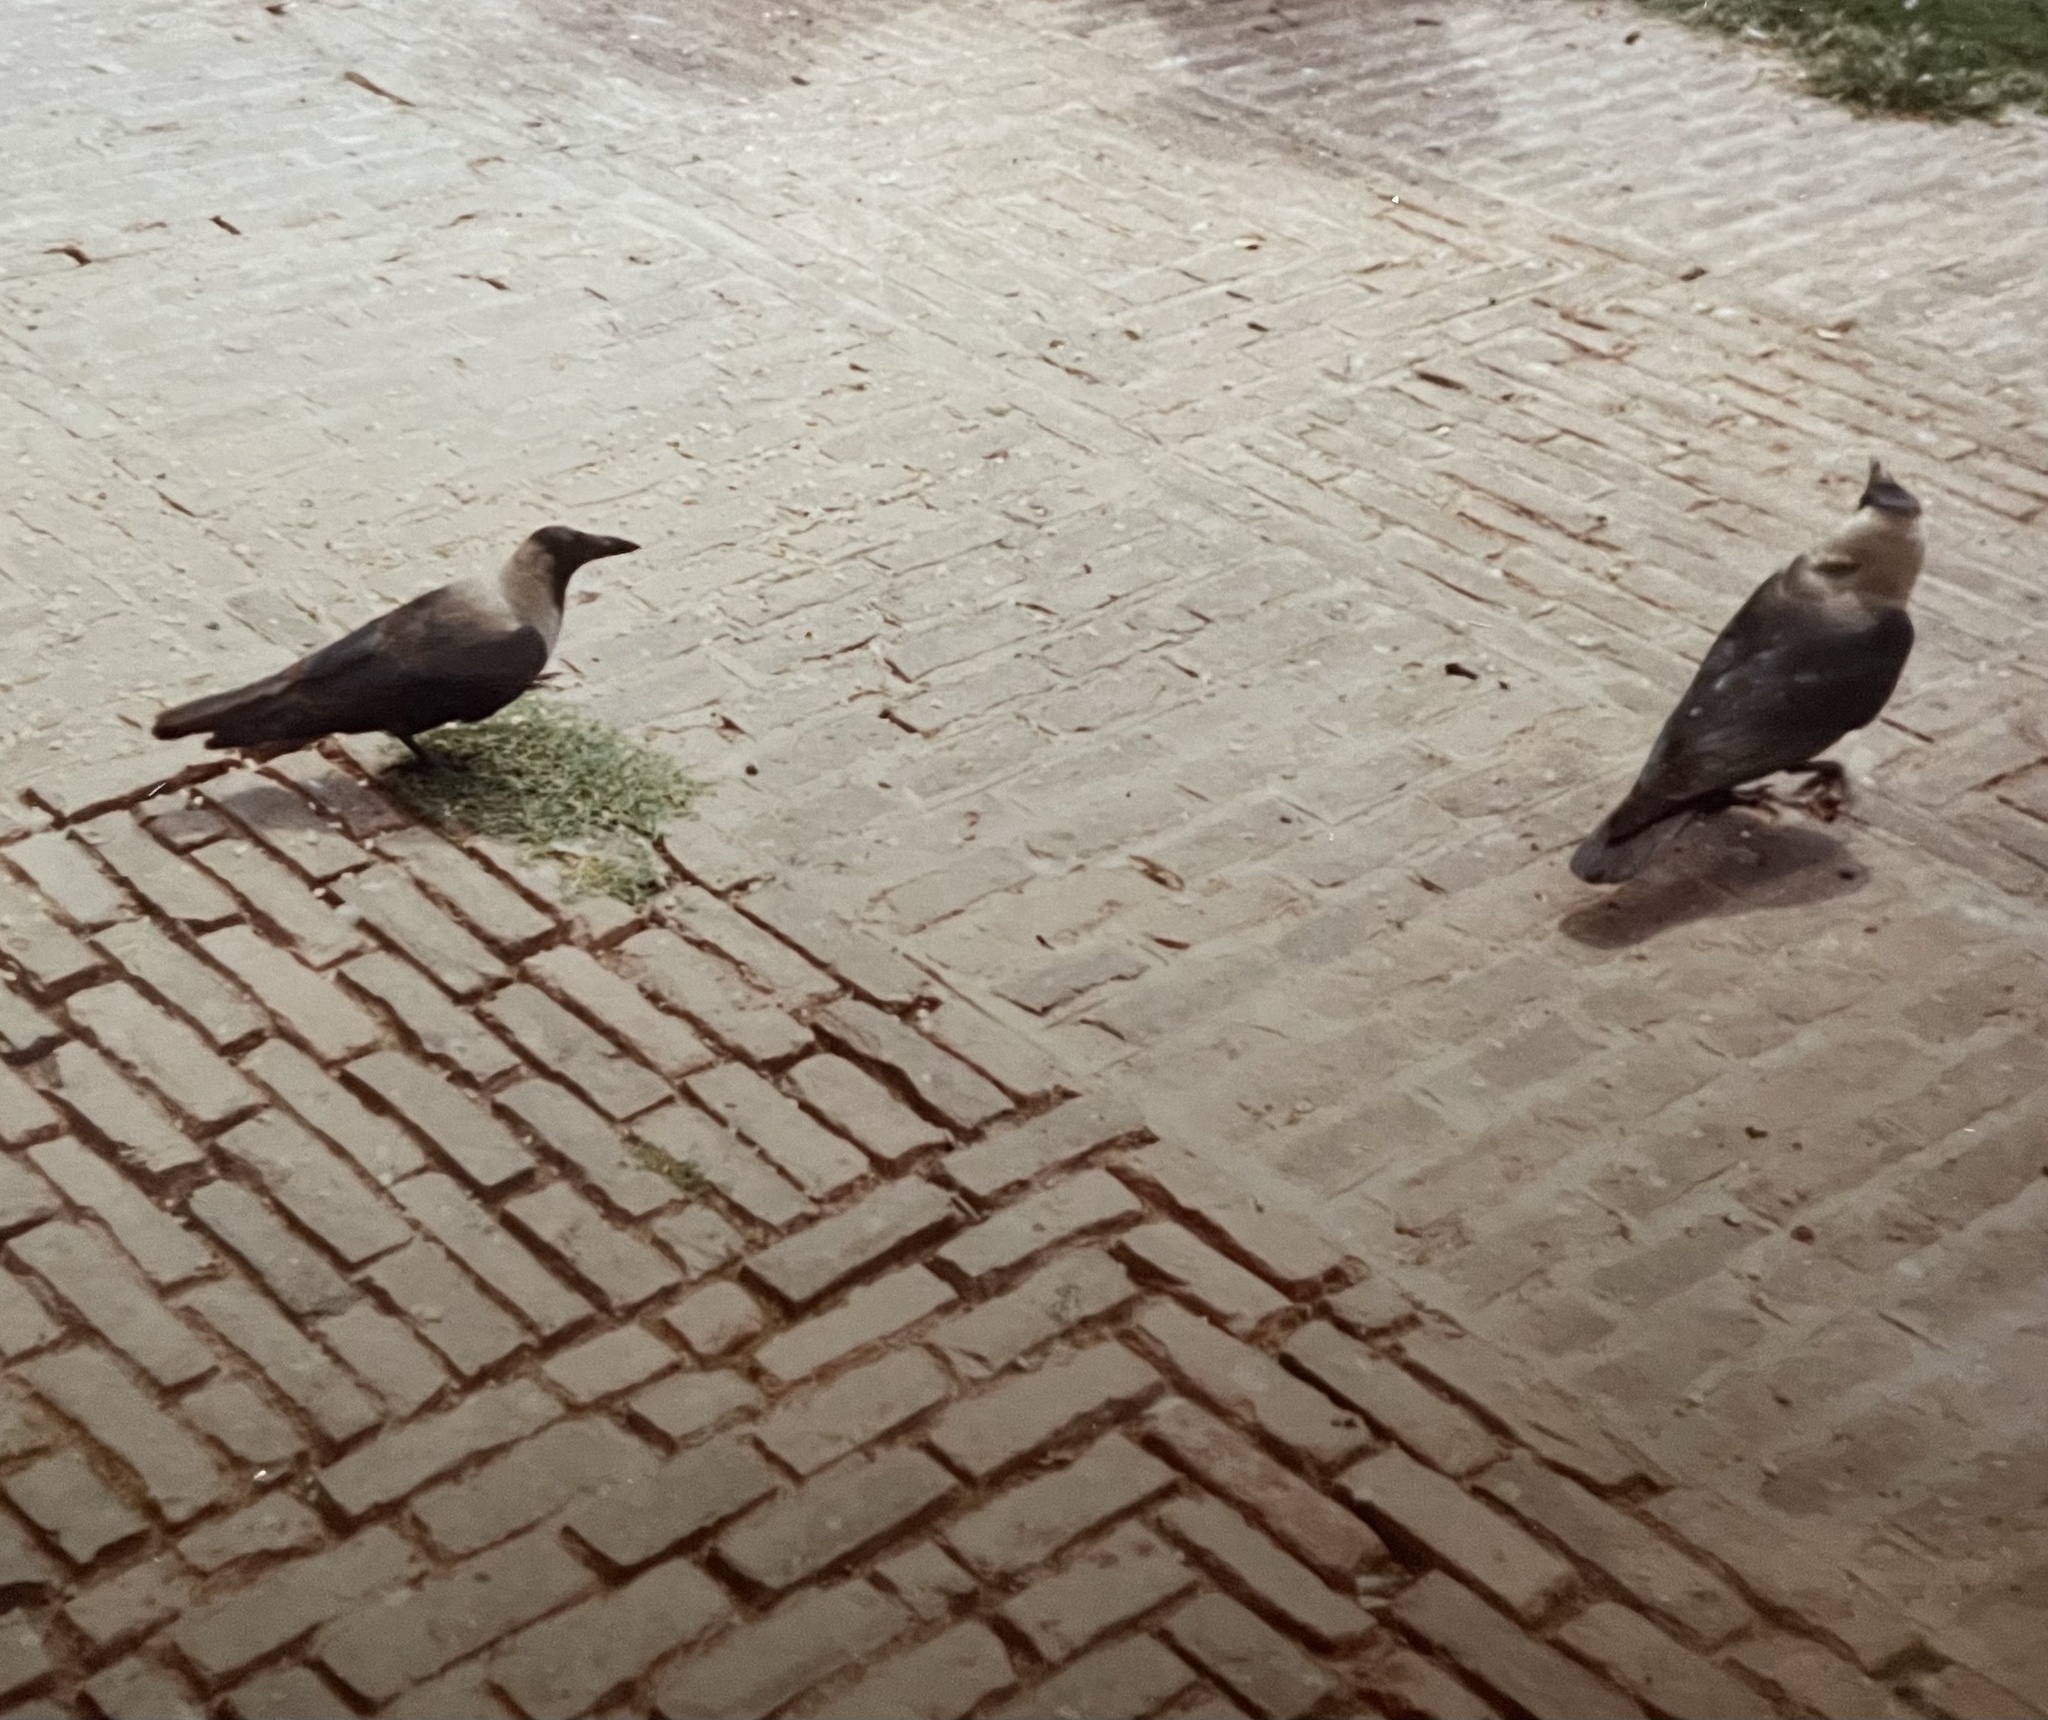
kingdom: Animalia
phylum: Chordata
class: Aves
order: Passeriformes
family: Corvidae
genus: Corvus
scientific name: Corvus splendens
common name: House crow
